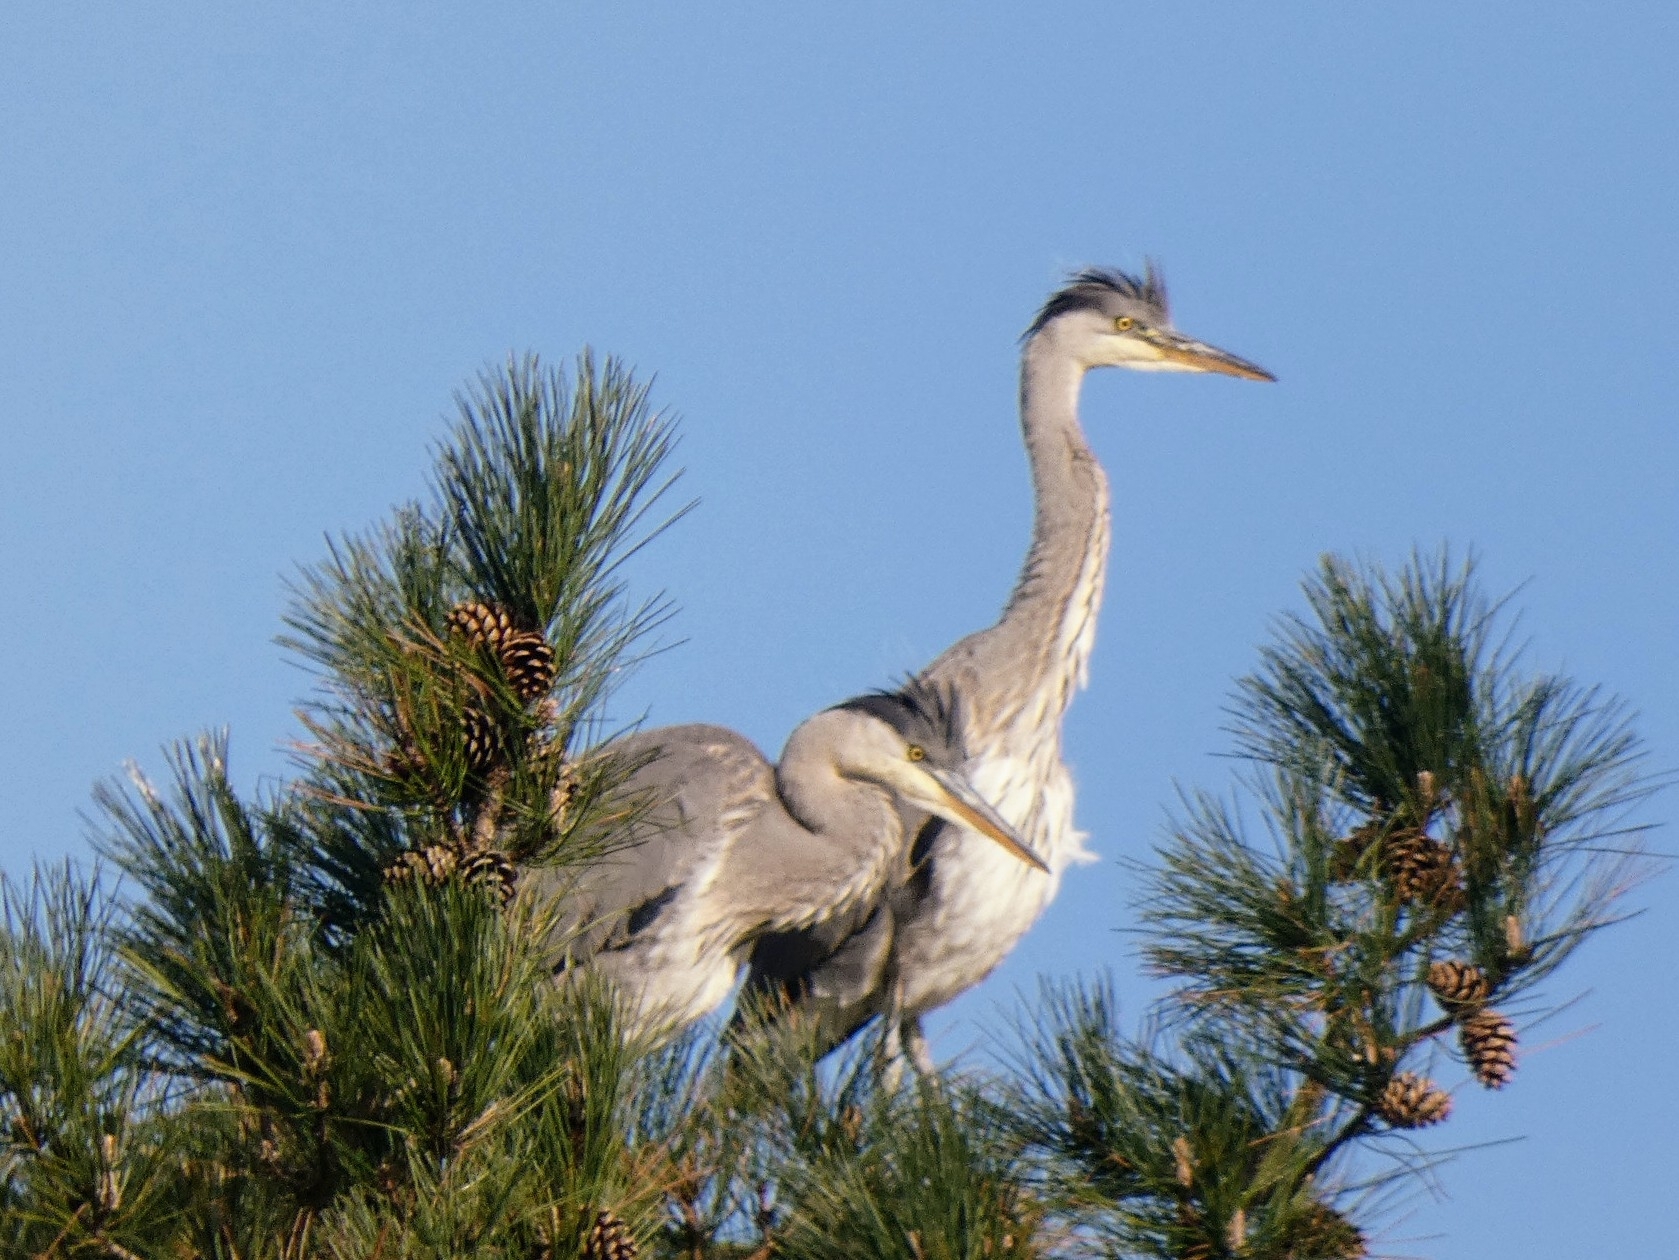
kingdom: Animalia
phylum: Chordata
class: Aves
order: Pelecaniformes
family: Ardeidae
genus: Ardea
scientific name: Ardea cinerea
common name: Grey heron
